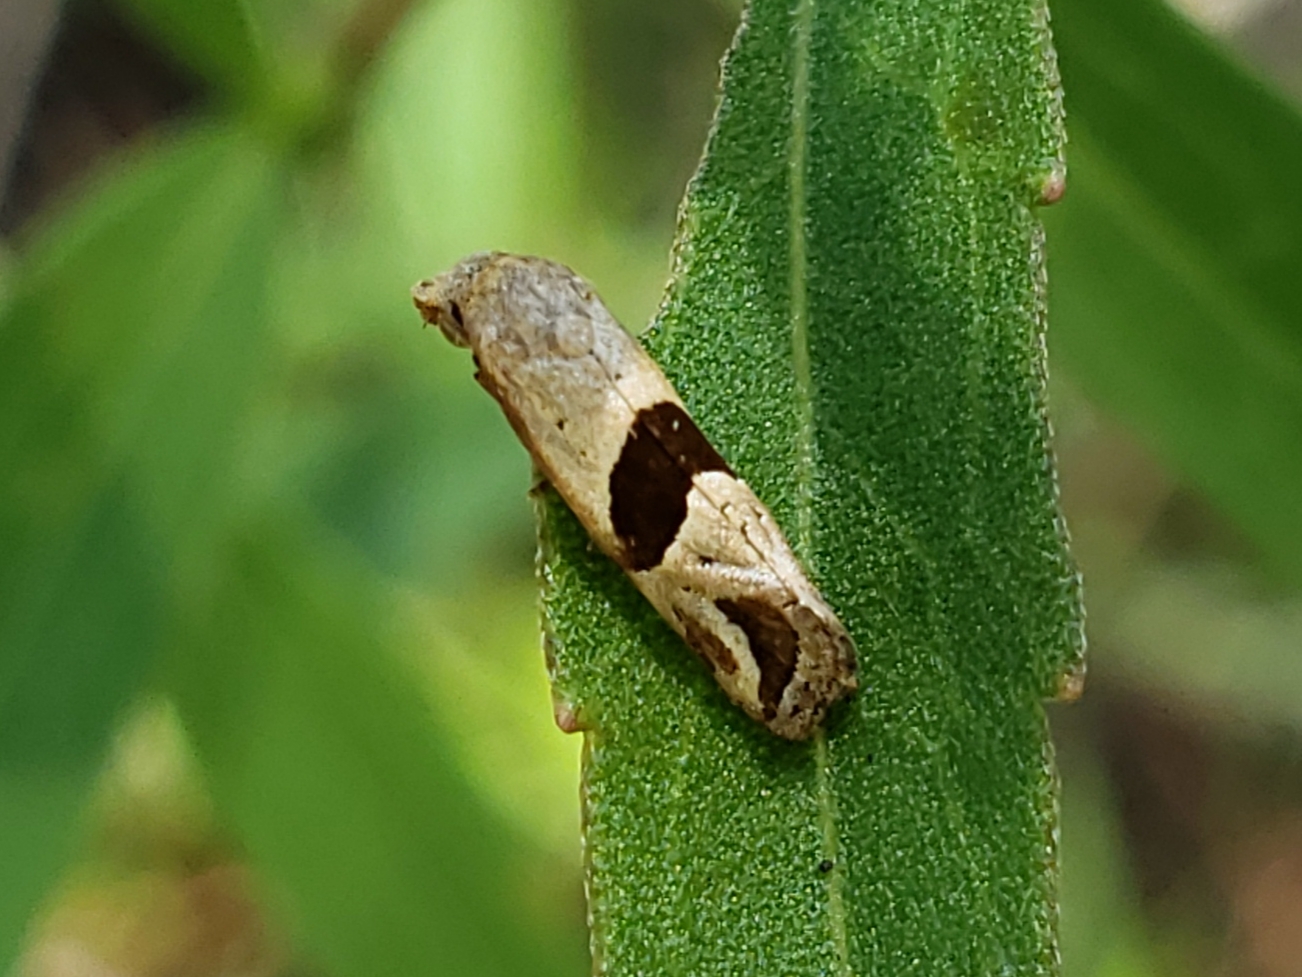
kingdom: Animalia
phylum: Arthropoda
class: Insecta
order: Lepidoptera
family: Tortricidae
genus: Eugnosta
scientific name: Eugnosta sartana
